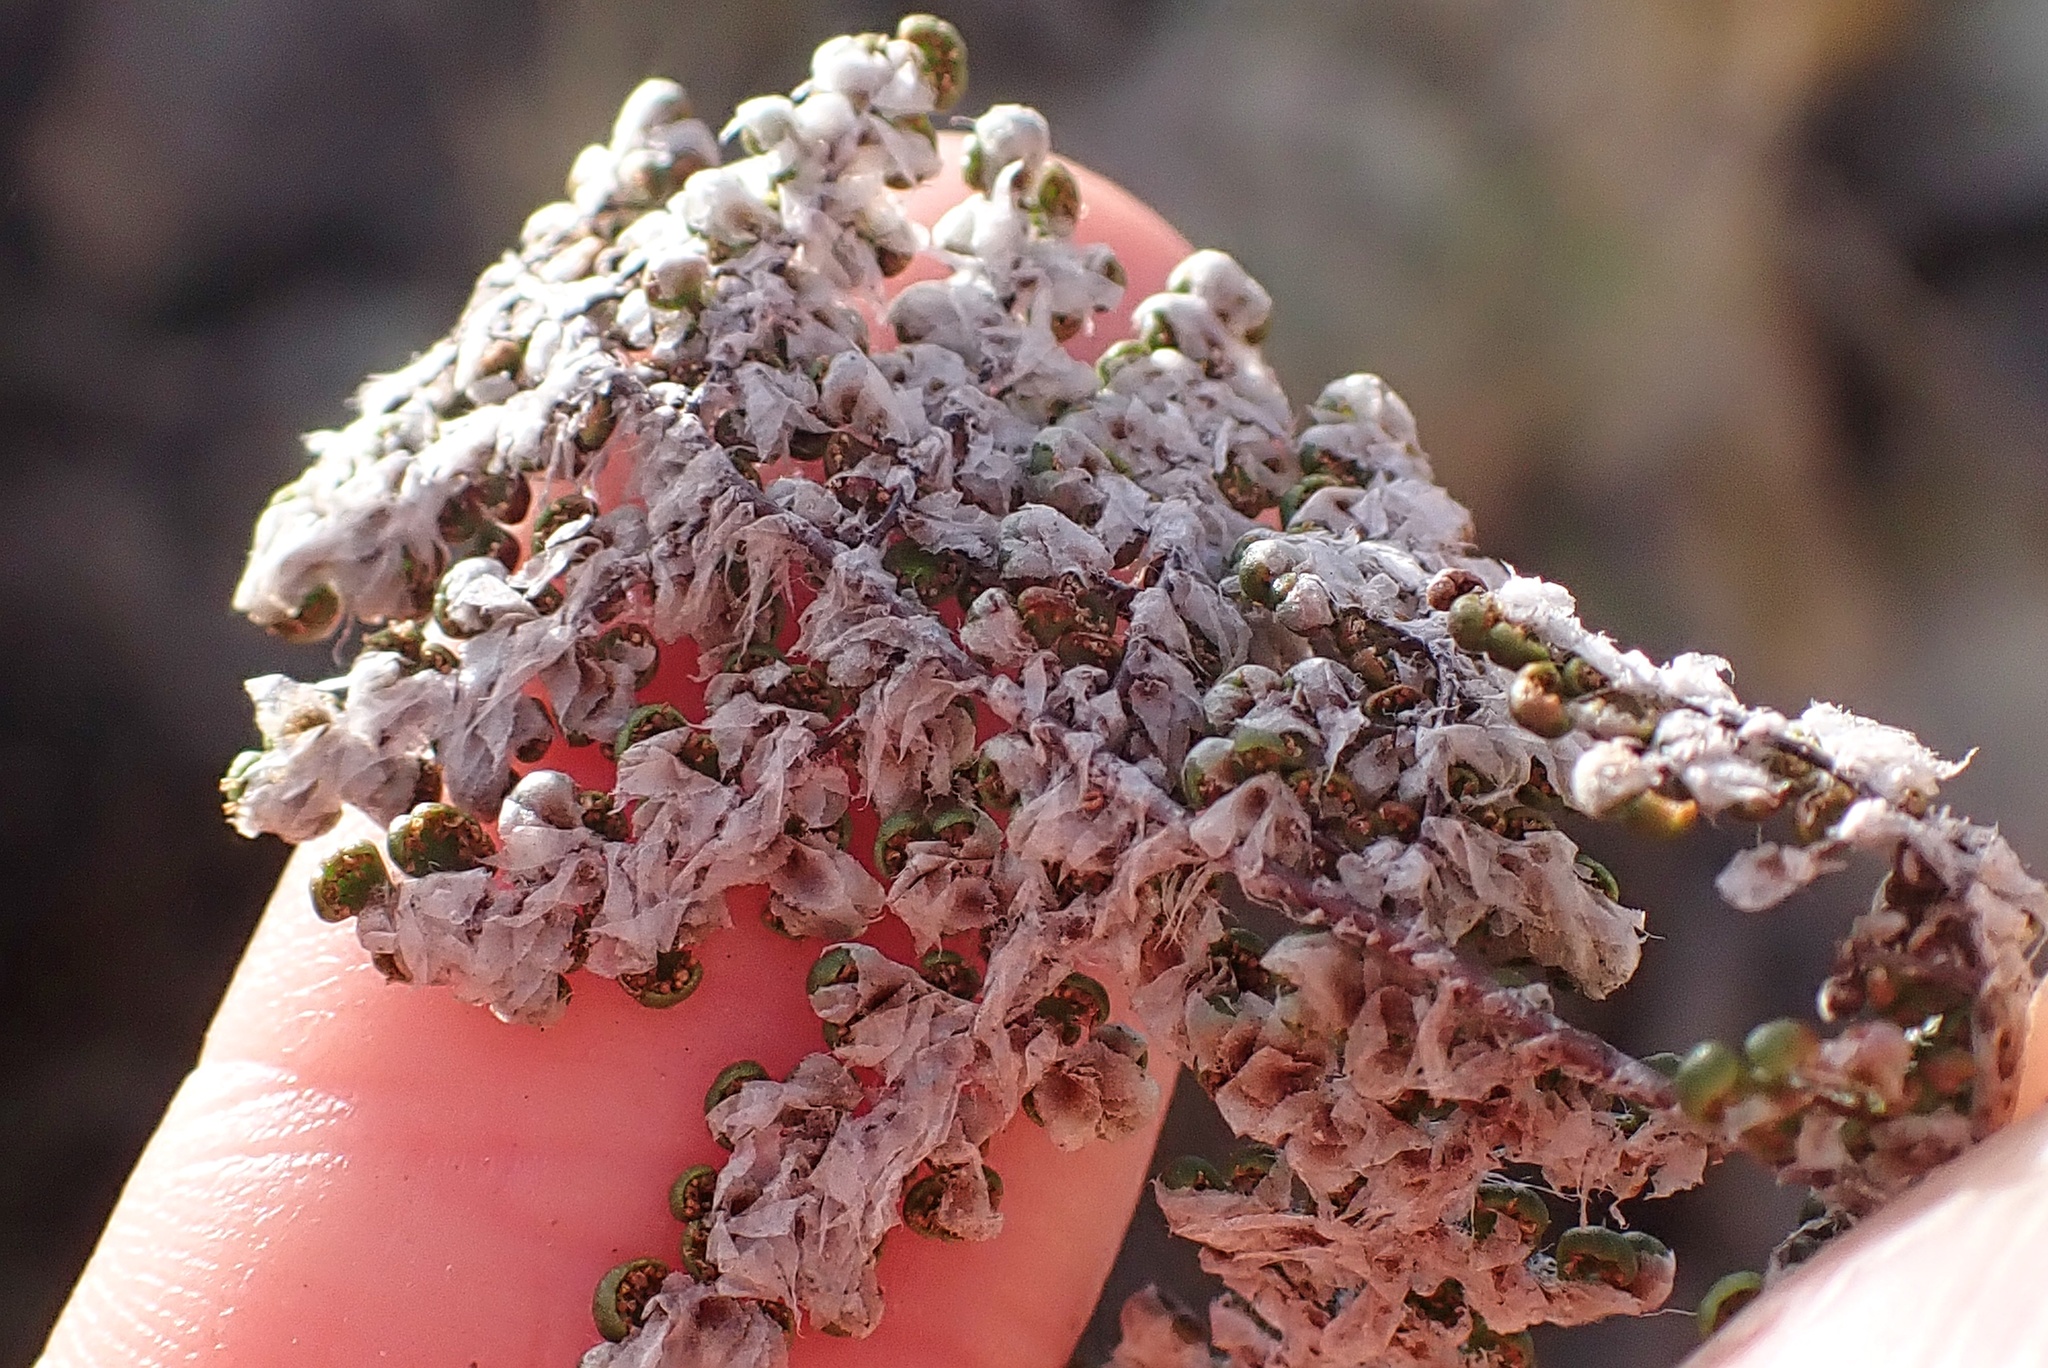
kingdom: Plantae
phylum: Tracheophyta
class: Polypodiopsida
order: Polypodiales
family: Pteridaceae
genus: Myriopteris
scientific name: Myriopteris covillei
